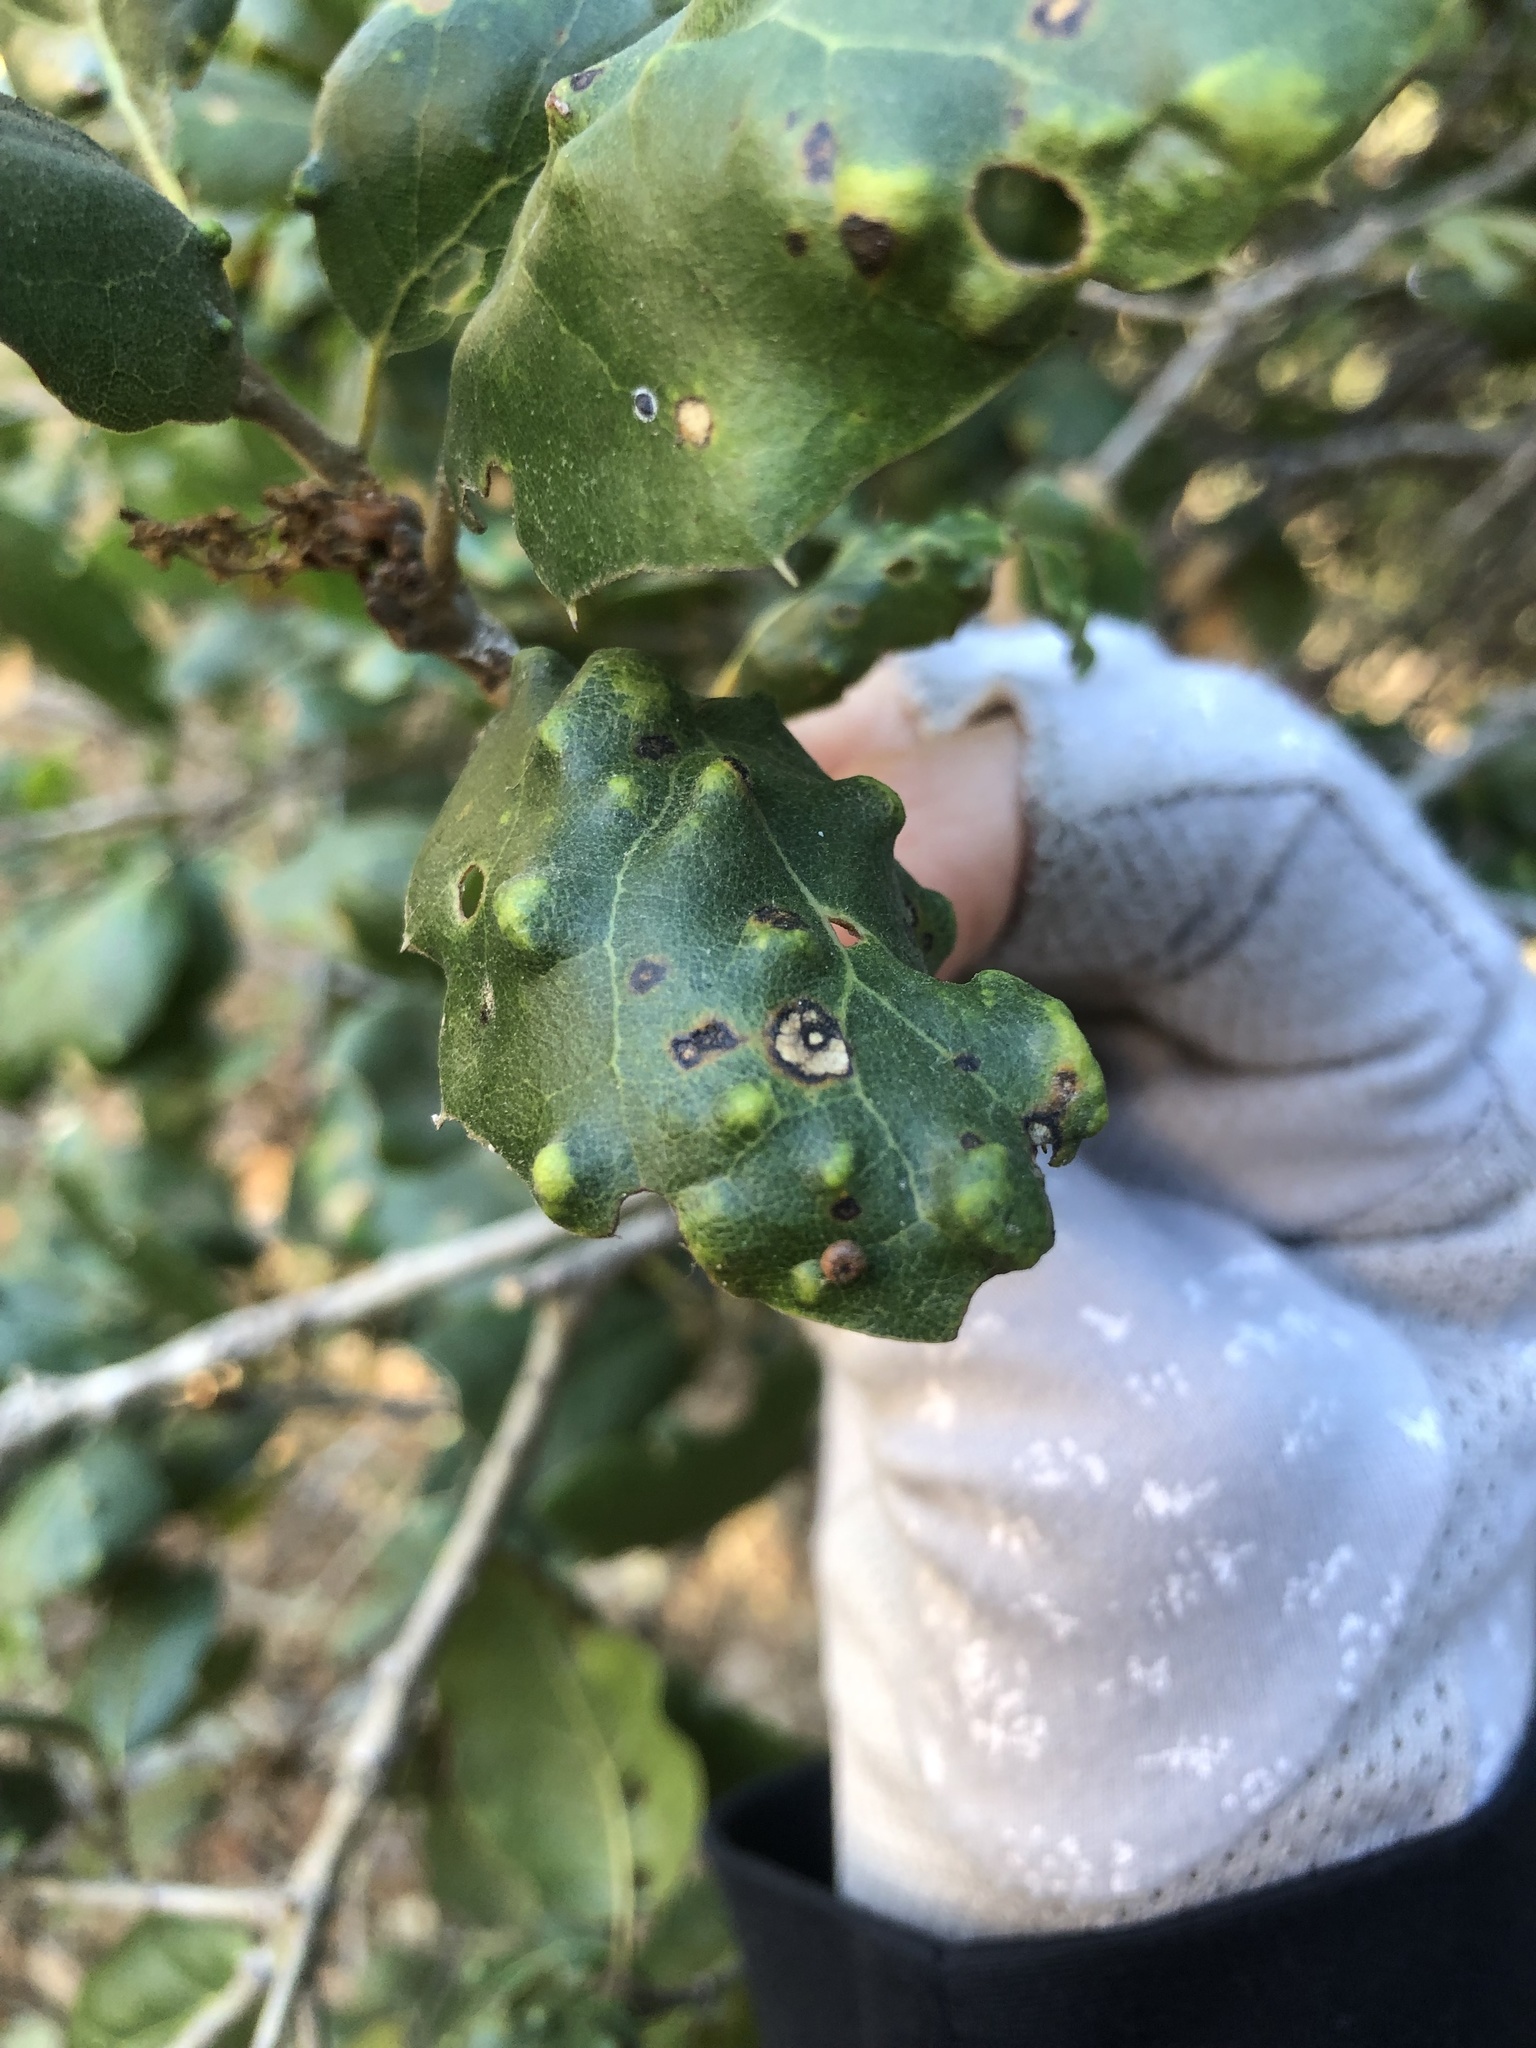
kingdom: Animalia
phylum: Arthropoda
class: Arachnida
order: Trombidiformes
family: Eriophyidae
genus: Aceria
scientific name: Aceria
